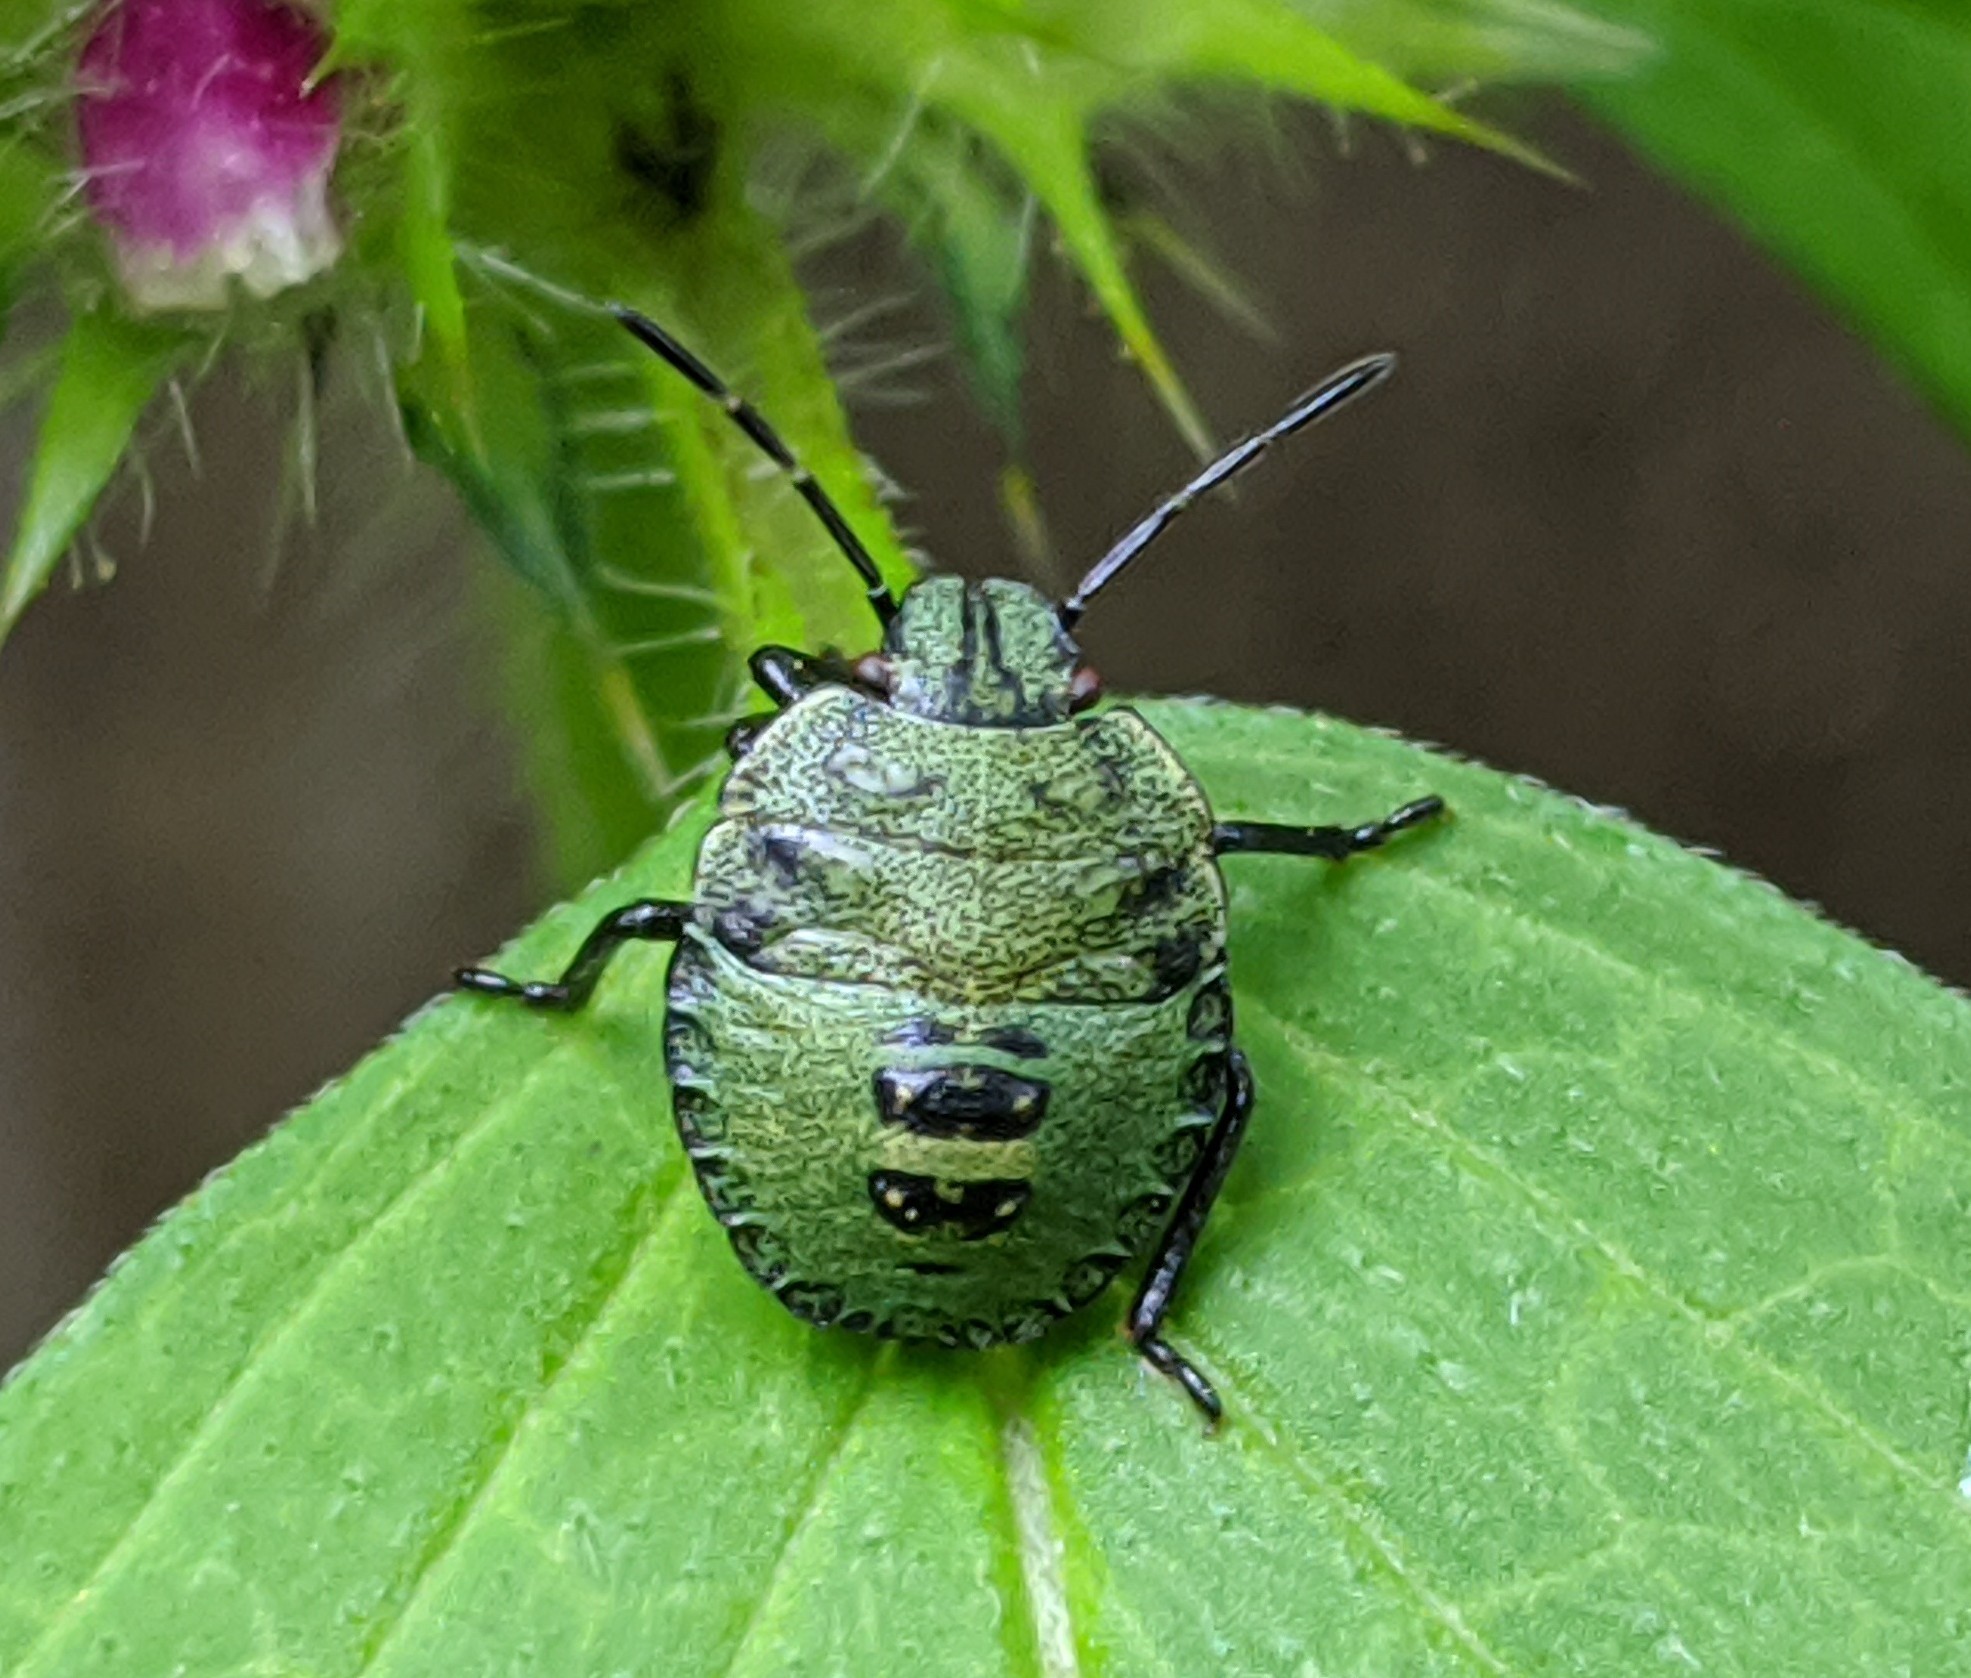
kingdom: Animalia
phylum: Arthropoda
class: Insecta
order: Hemiptera
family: Pentatomidae
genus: Palomena
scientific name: Palomena prasina
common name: Green shieldbug
